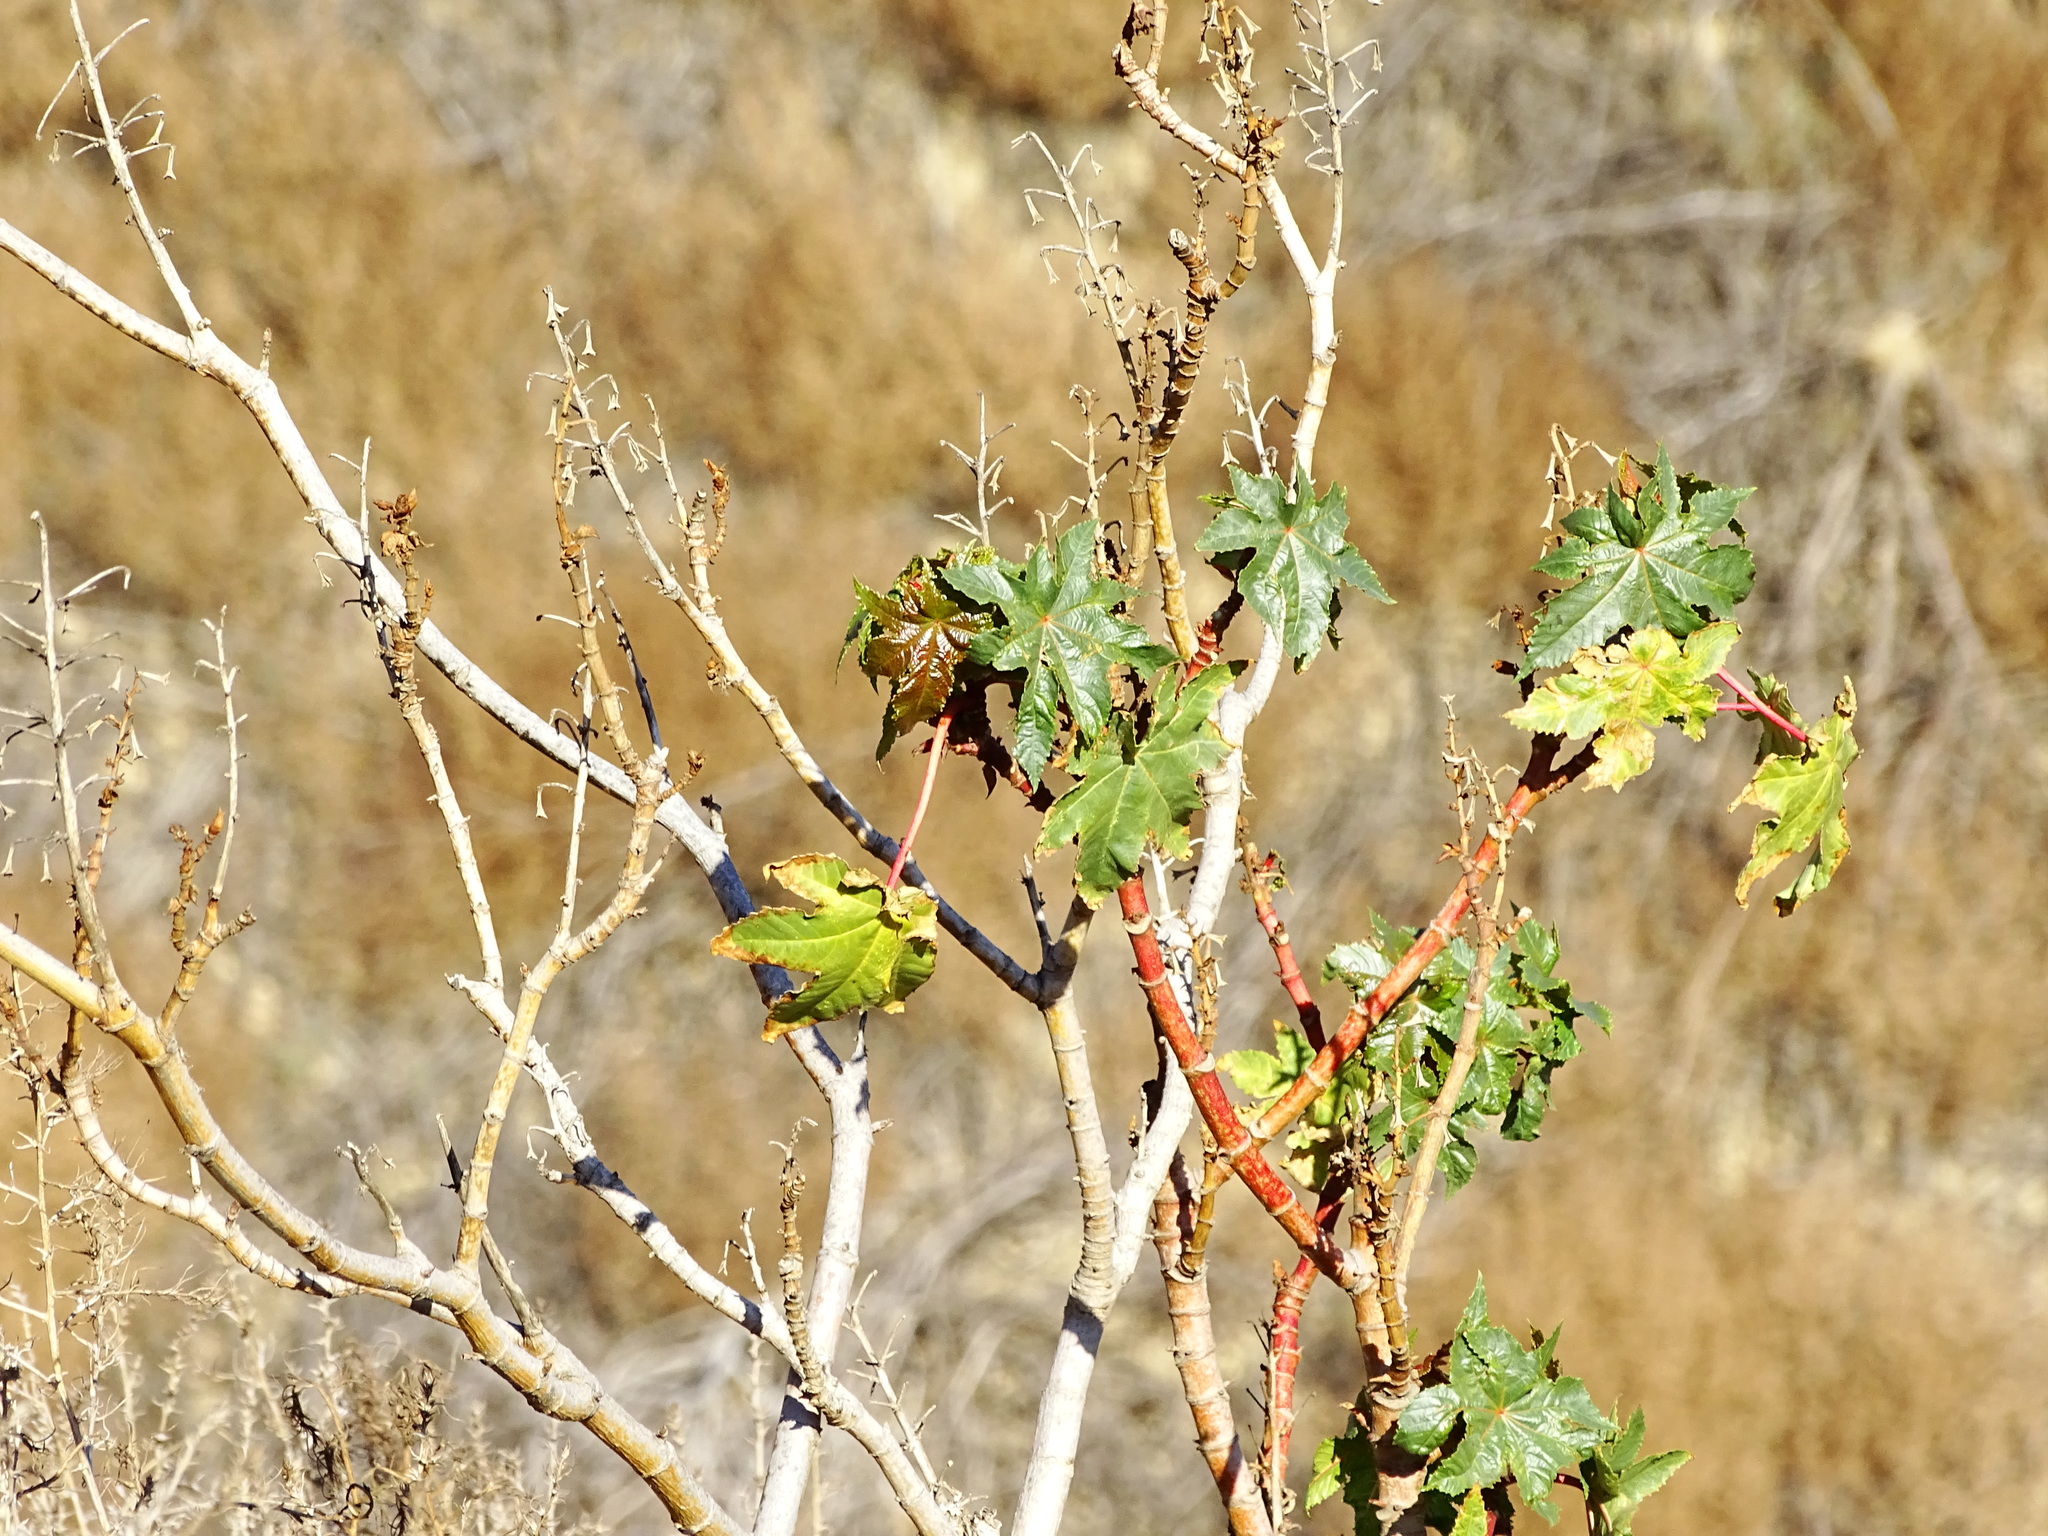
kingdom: Plantae
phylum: Tracheophyta
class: Magnoliopsida
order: Malpighiales
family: Euphorbiaceae
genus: Ricinus
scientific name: Ricinus communis
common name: Castor-oil-plant
